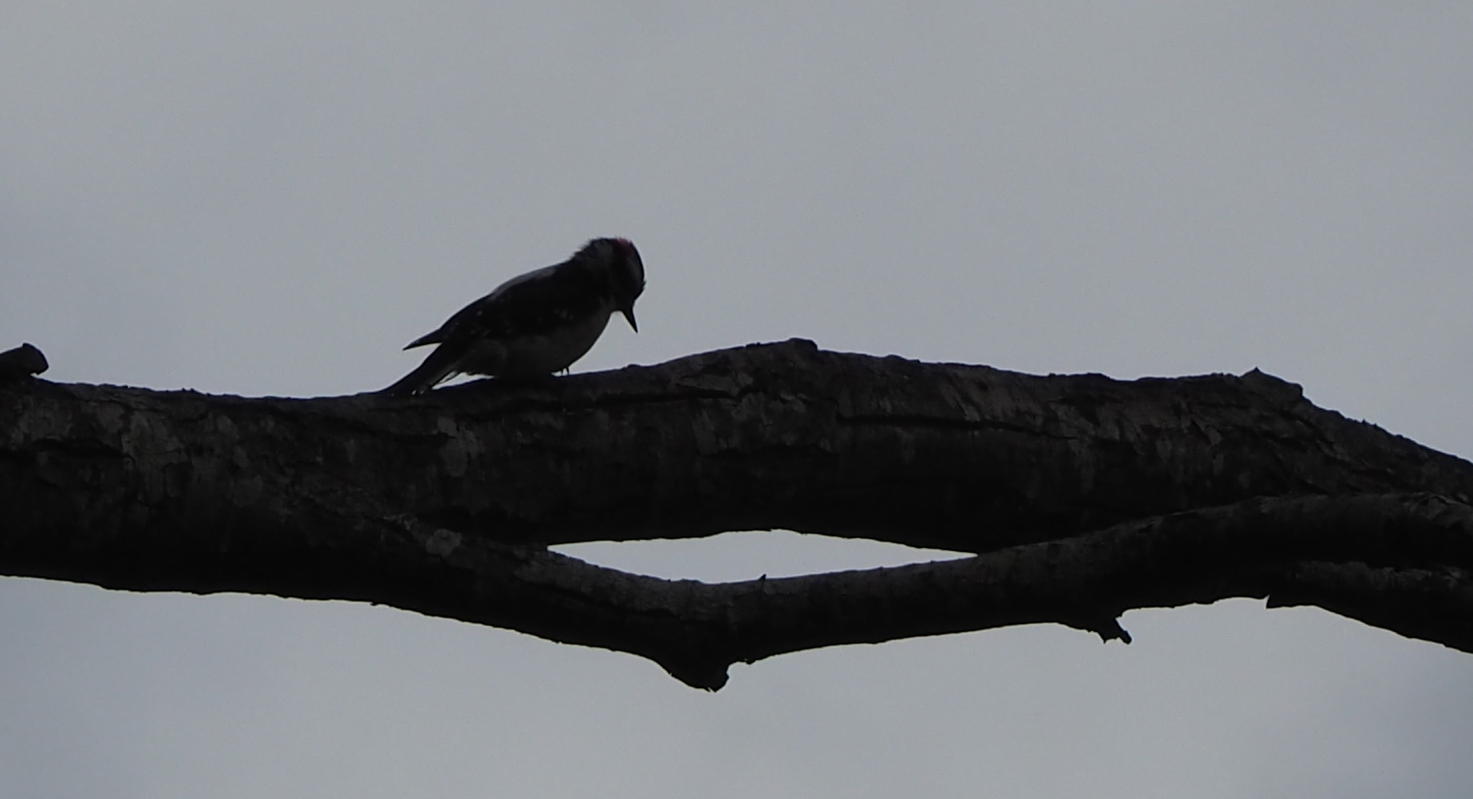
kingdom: Animalia
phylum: Chordata
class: Aves
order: Piciformes
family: Picidae
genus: Dryobates
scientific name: Dryobates pubescens
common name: Downy woodpecker
